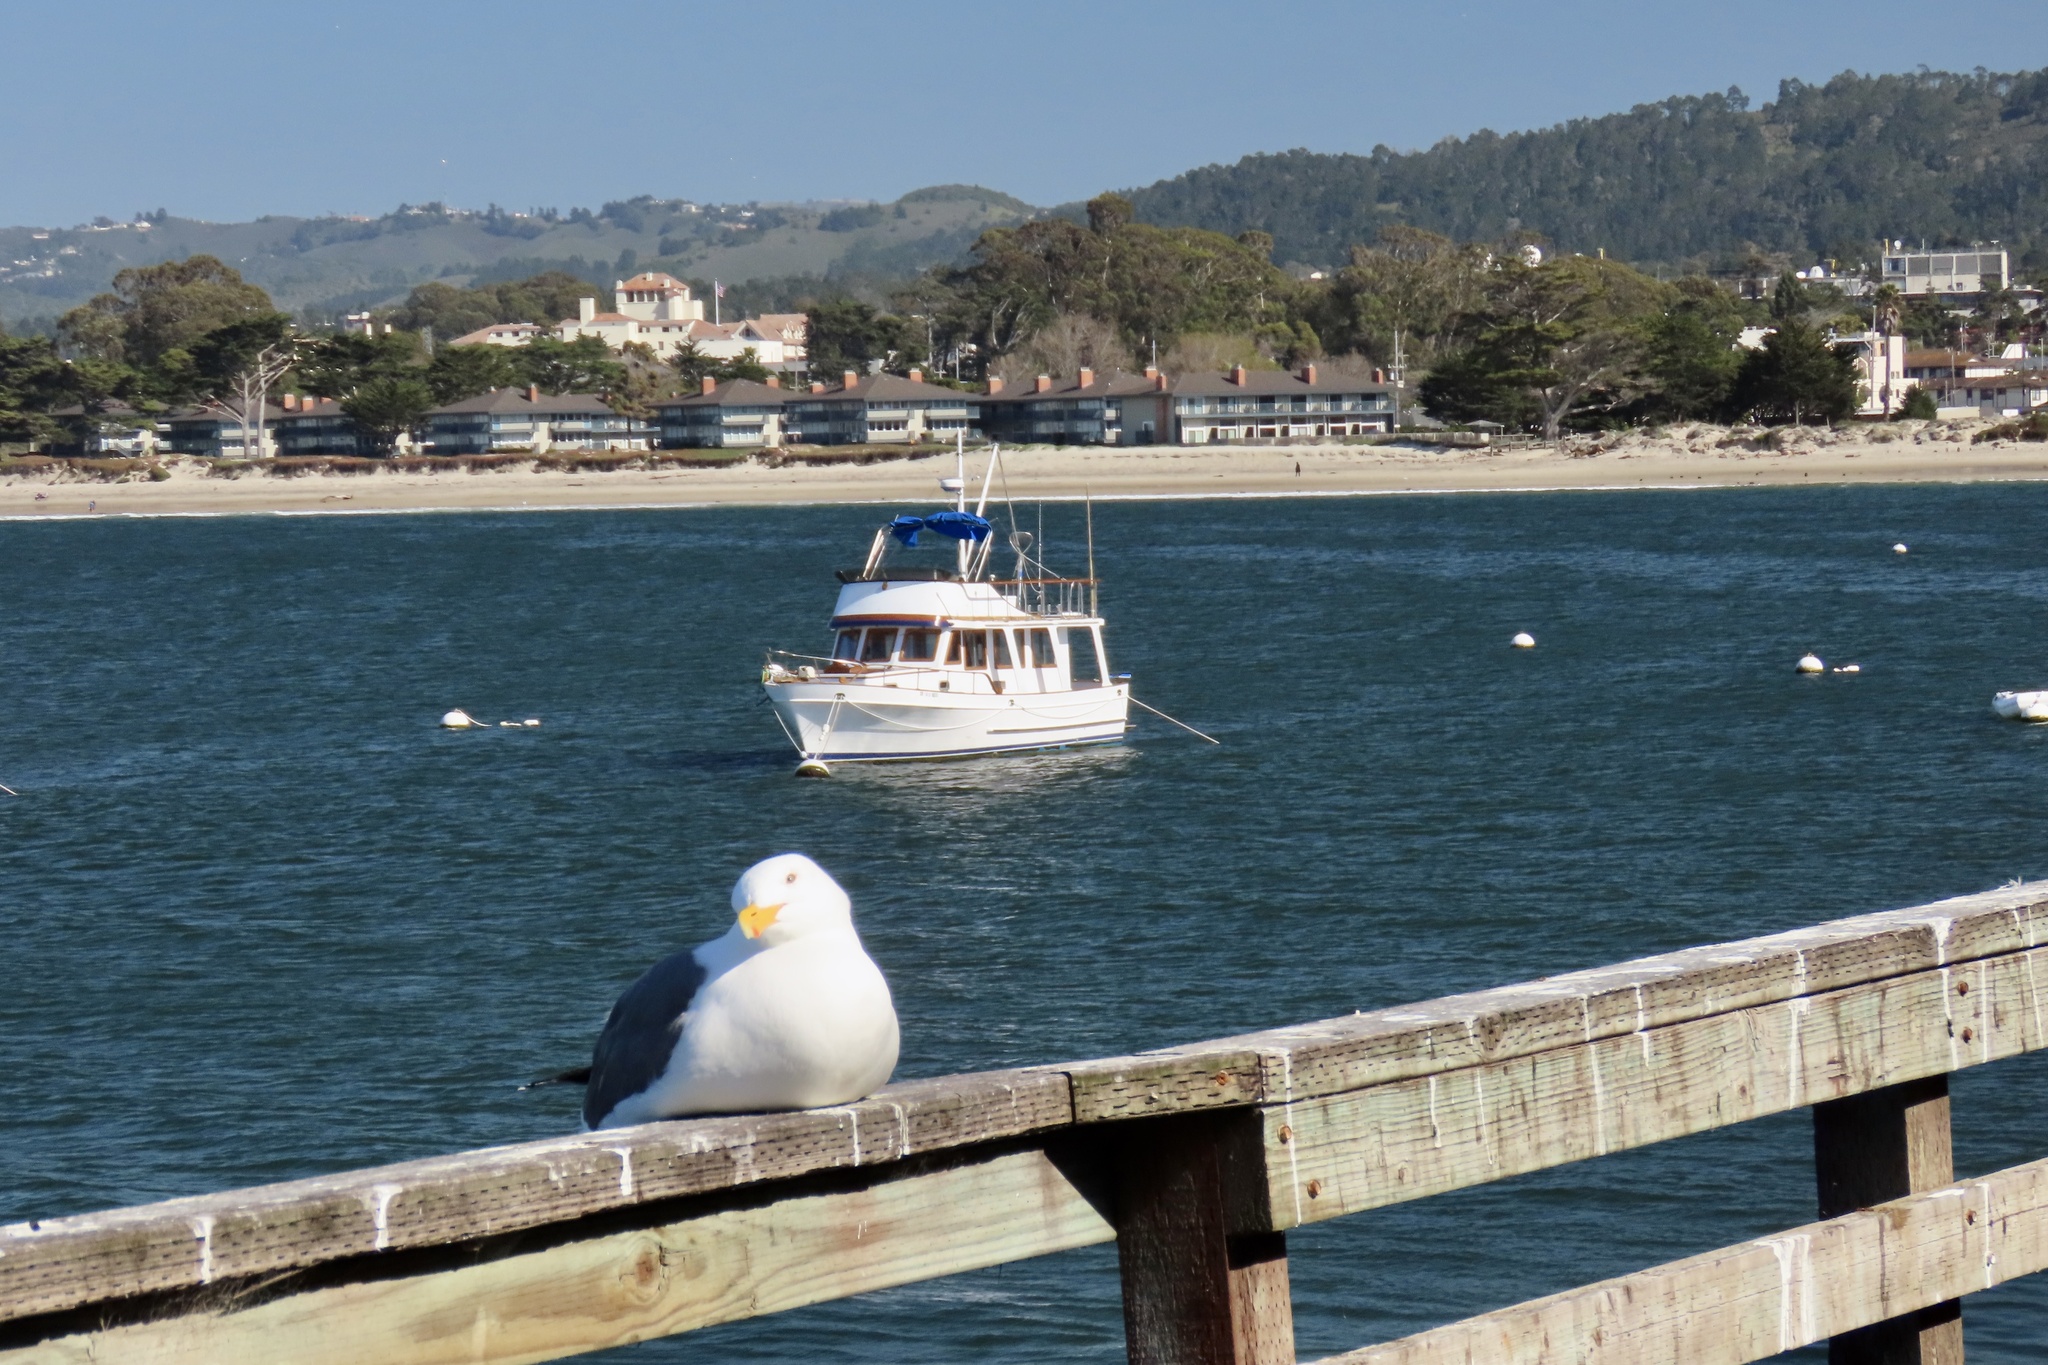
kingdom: Animalia
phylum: Chordata
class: Aves
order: Charadriiformes
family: Laridae
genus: Larus
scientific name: Larus occidentalis
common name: Western gull
